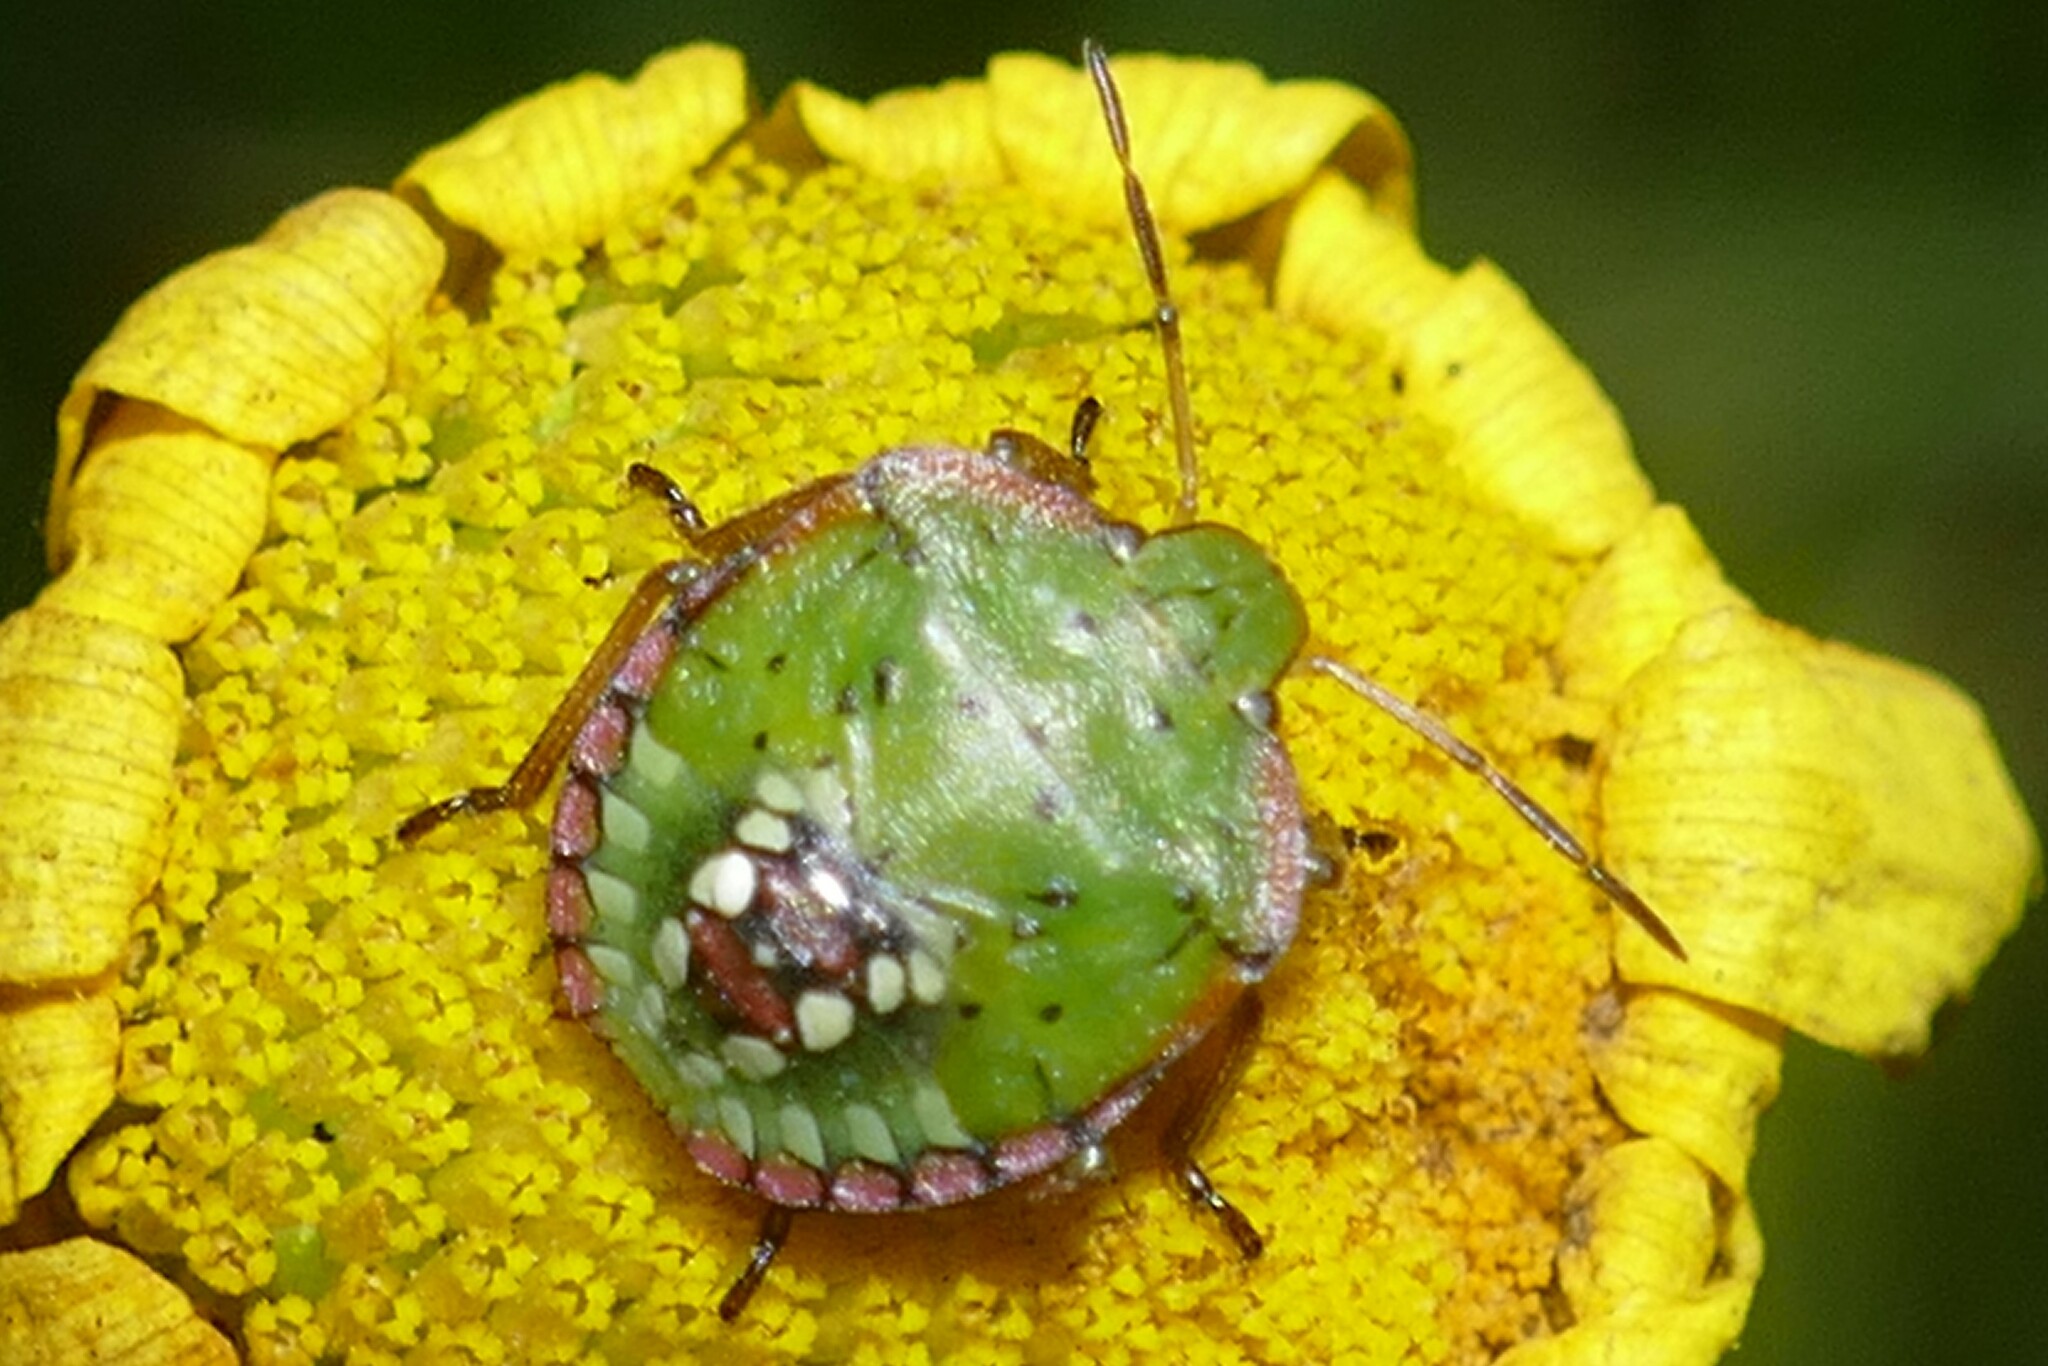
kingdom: Animalia
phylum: Arthropoda
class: Insecta
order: Hemiptera
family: Pentatomidae
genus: Nezara
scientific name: Nezara viridula
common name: Southern green stink bug
